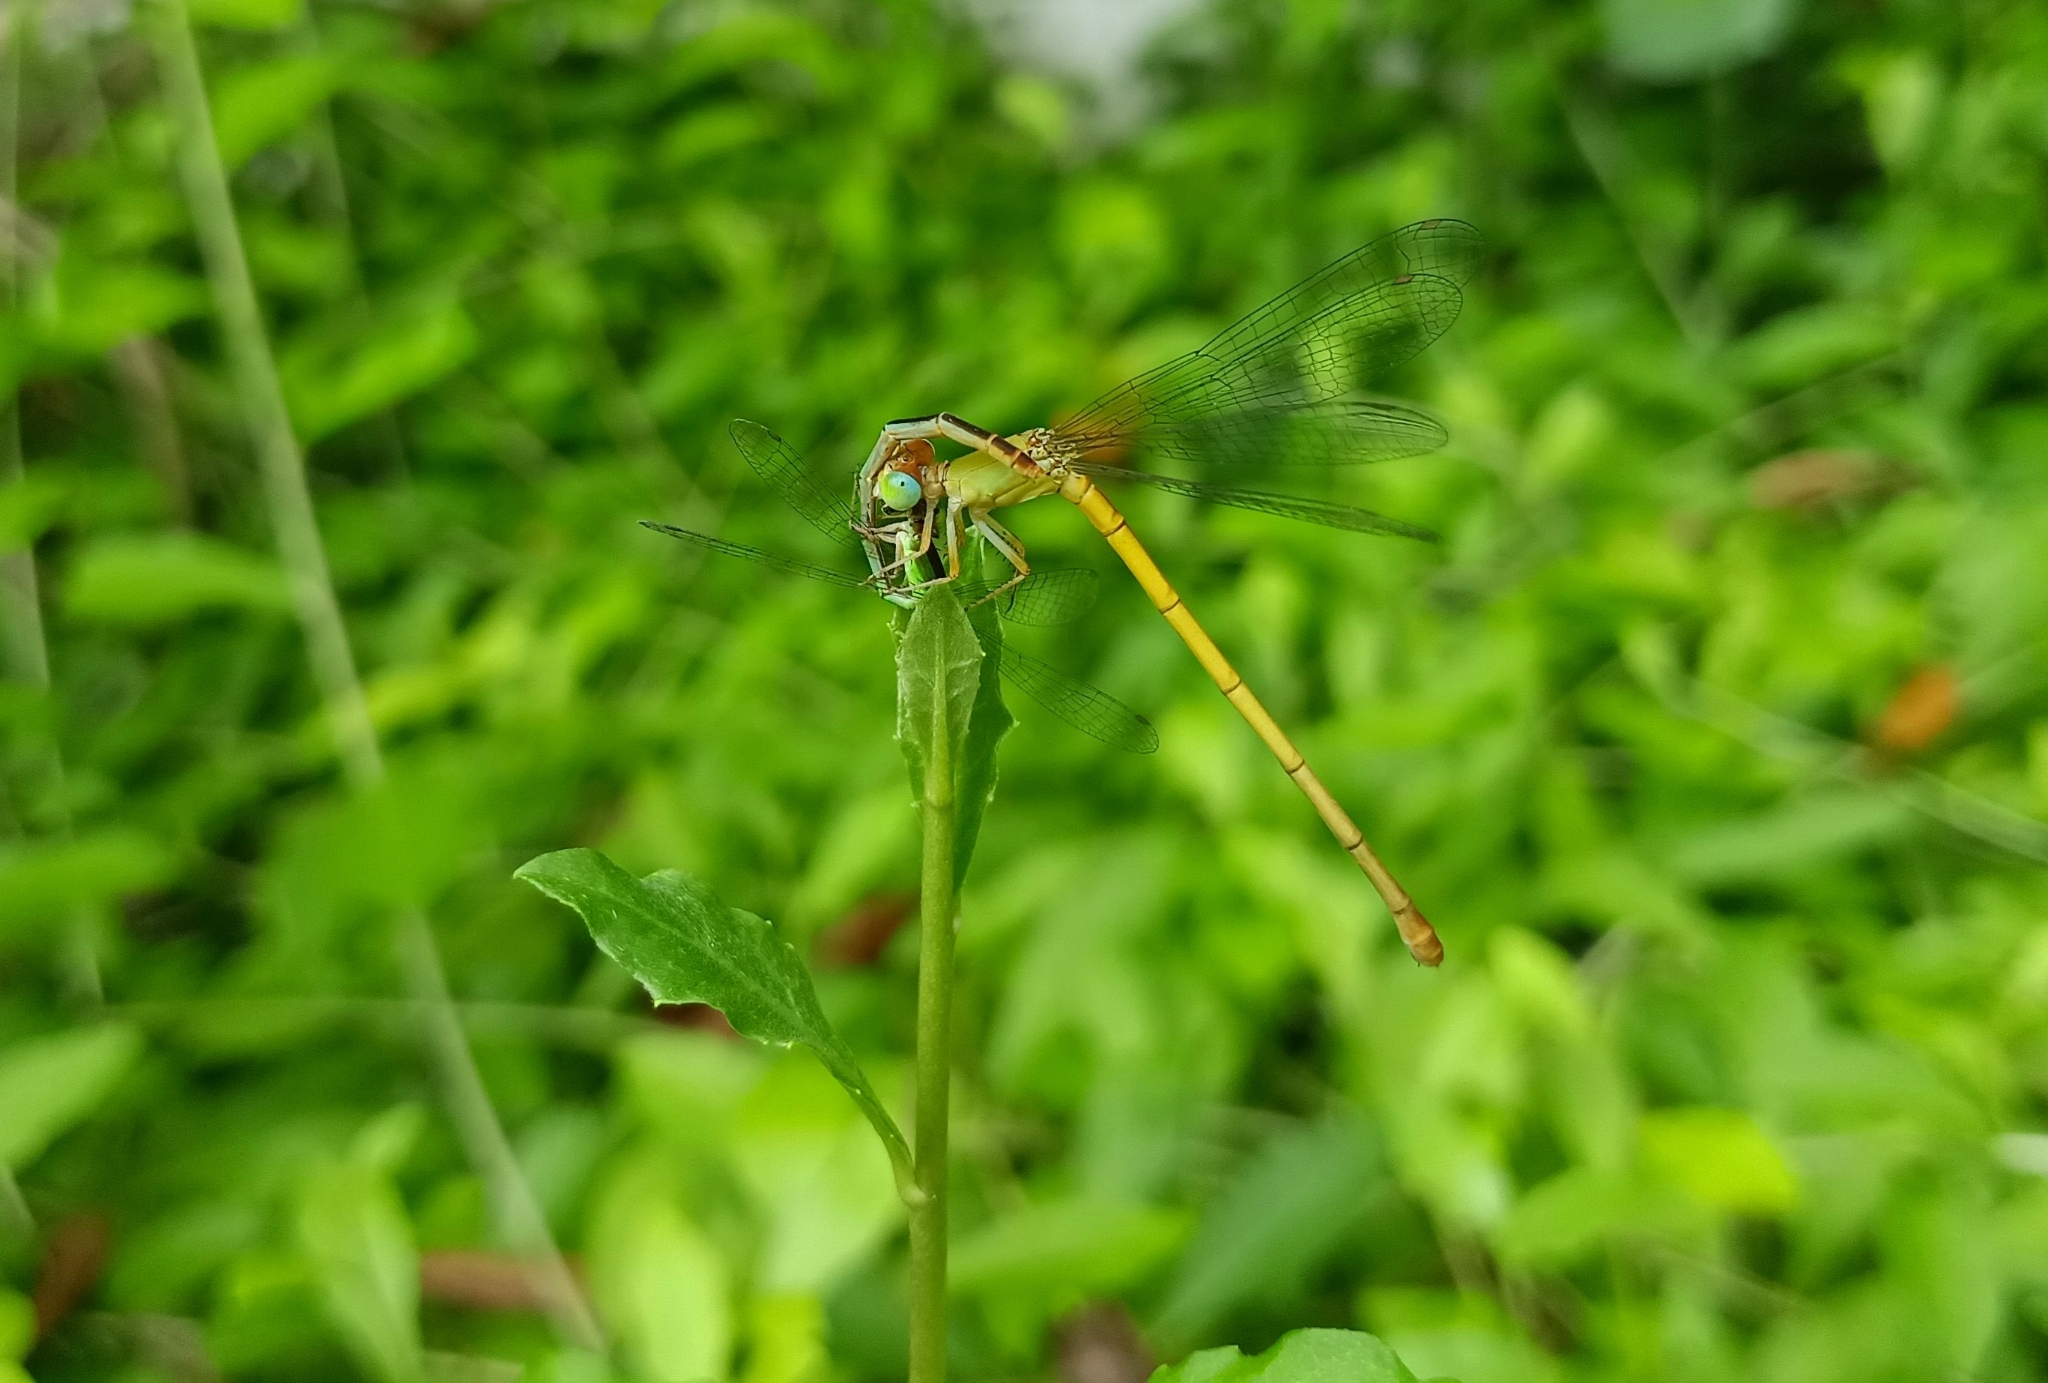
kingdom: Animalia
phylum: Arthropoda
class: Insecta
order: Odonata
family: Coenagrionidae
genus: Ceriagrion
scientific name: Ceriagrion coromandelianum
